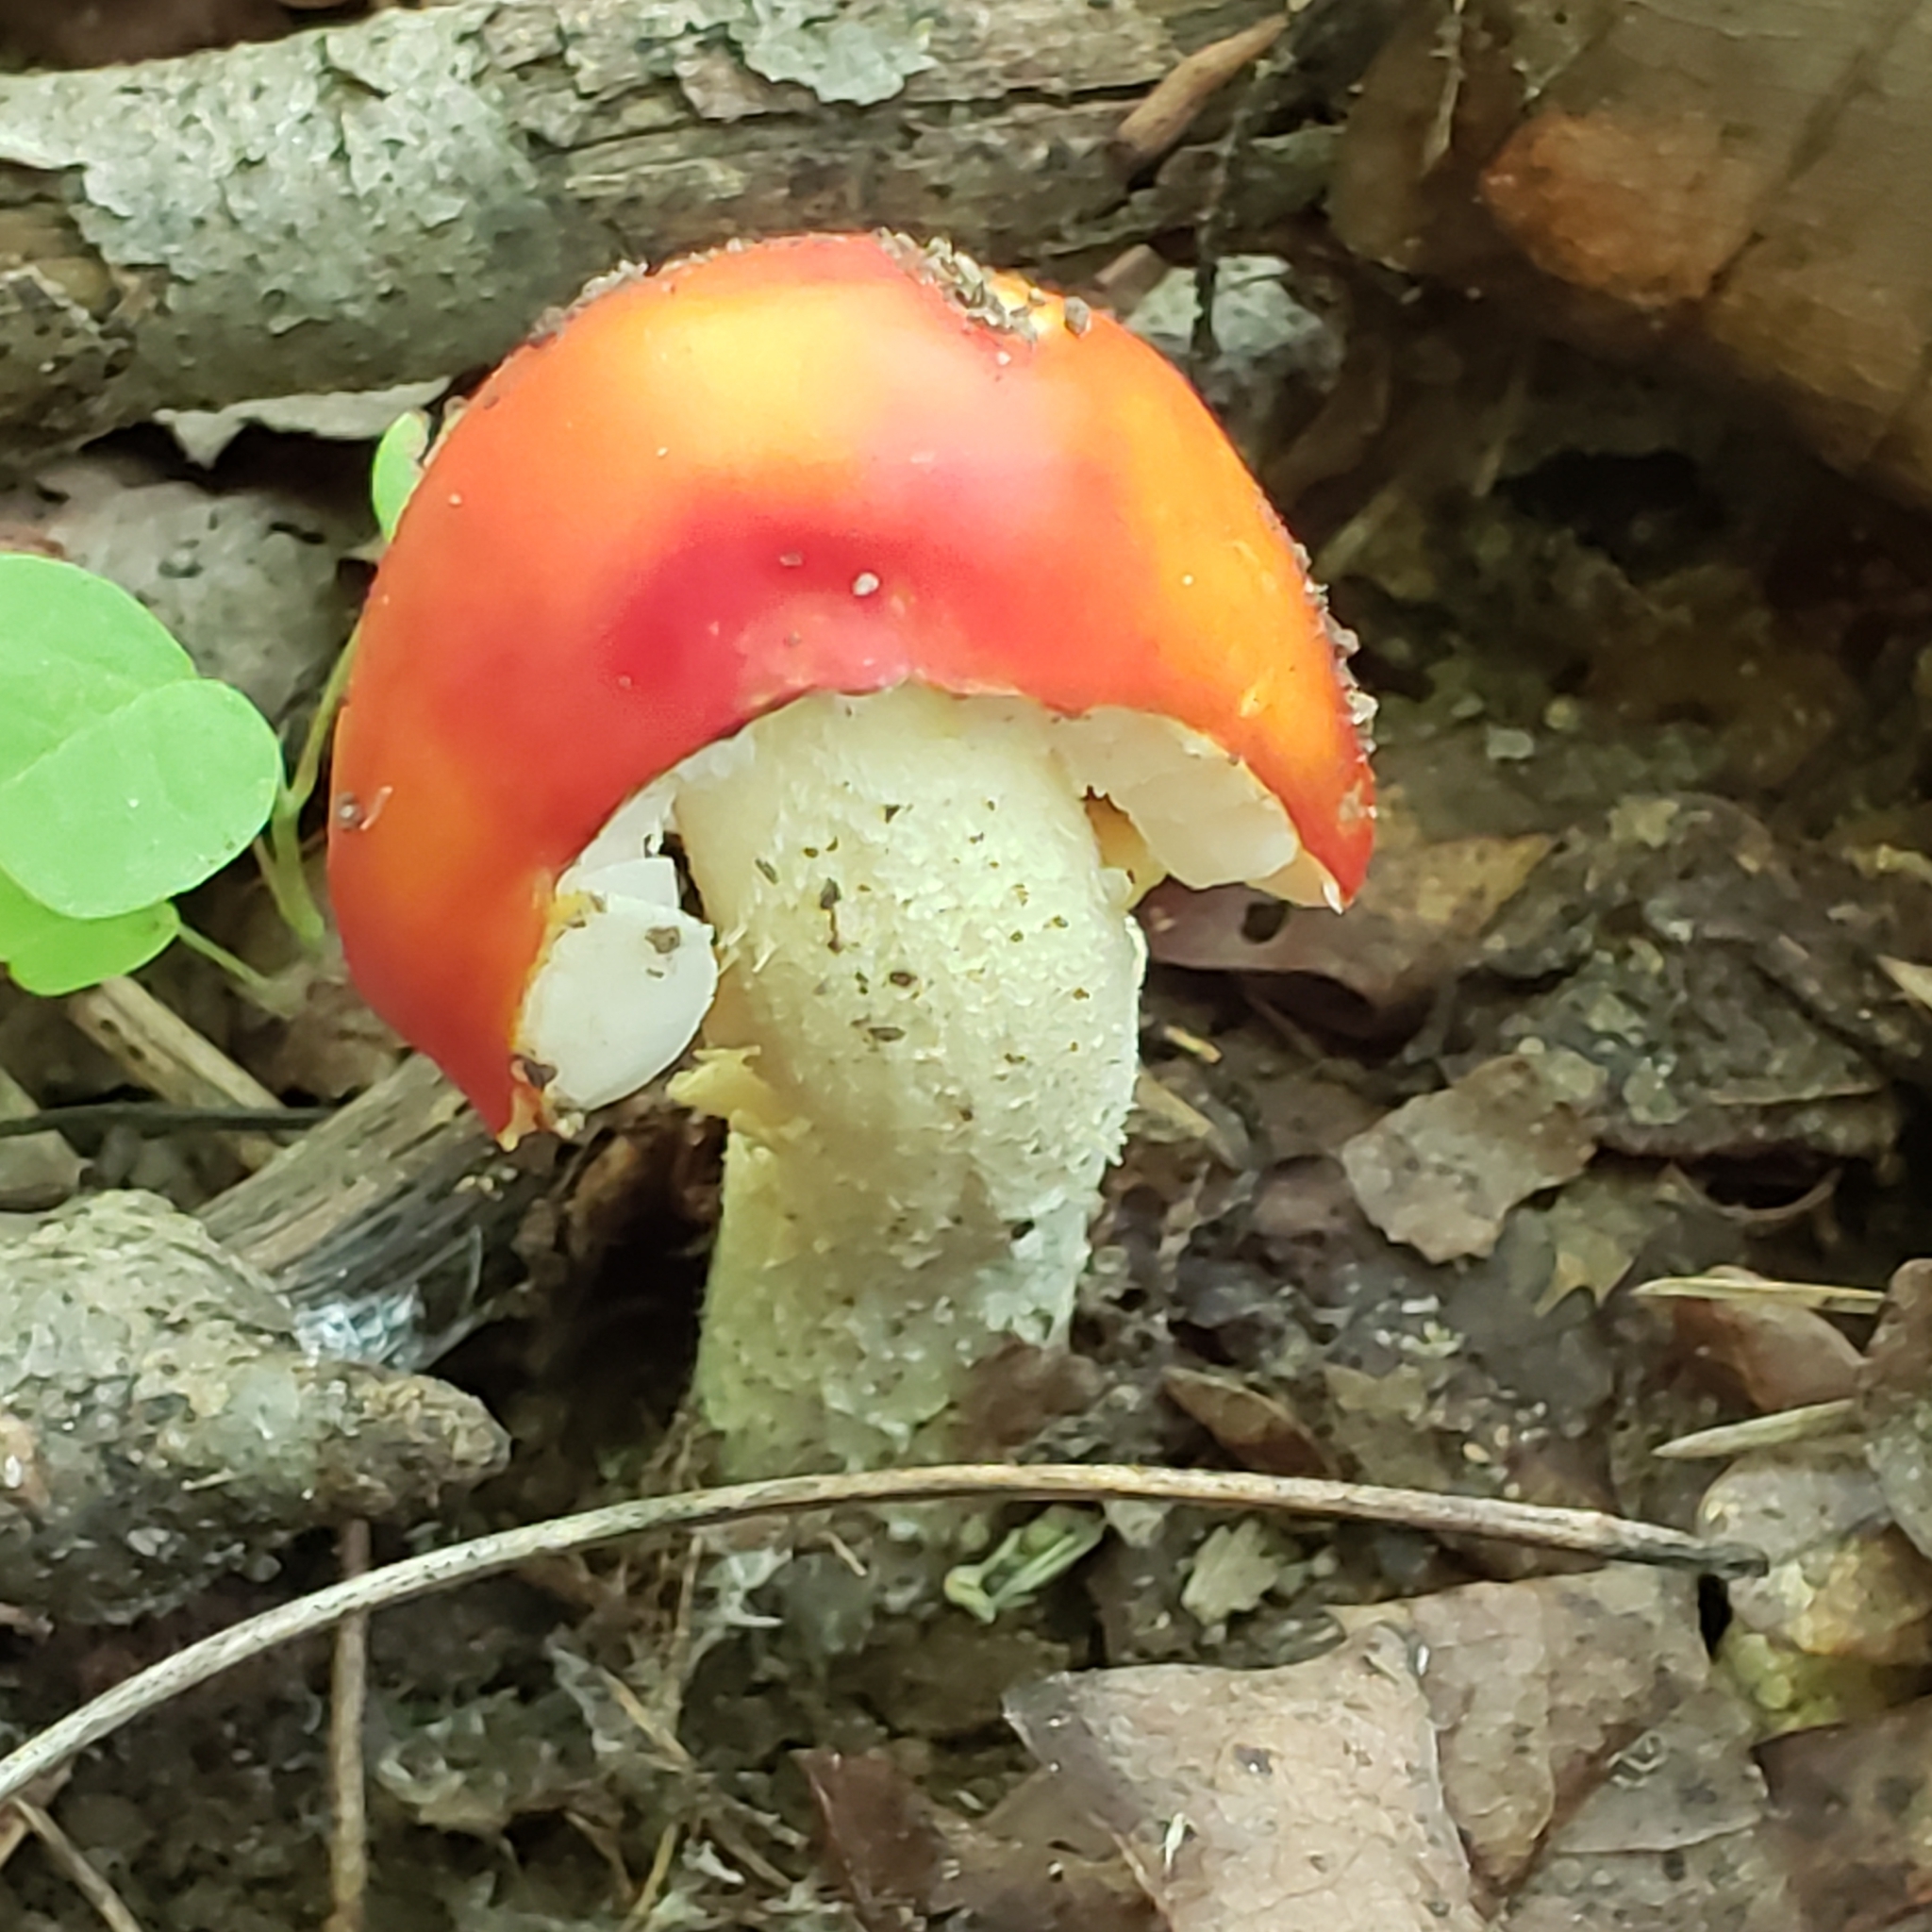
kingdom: Fungi
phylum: Basidiomycota
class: Agaricomycetes
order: Agaricales
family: Amanitaceae
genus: Amanita
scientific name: Amanita parcivolvata
